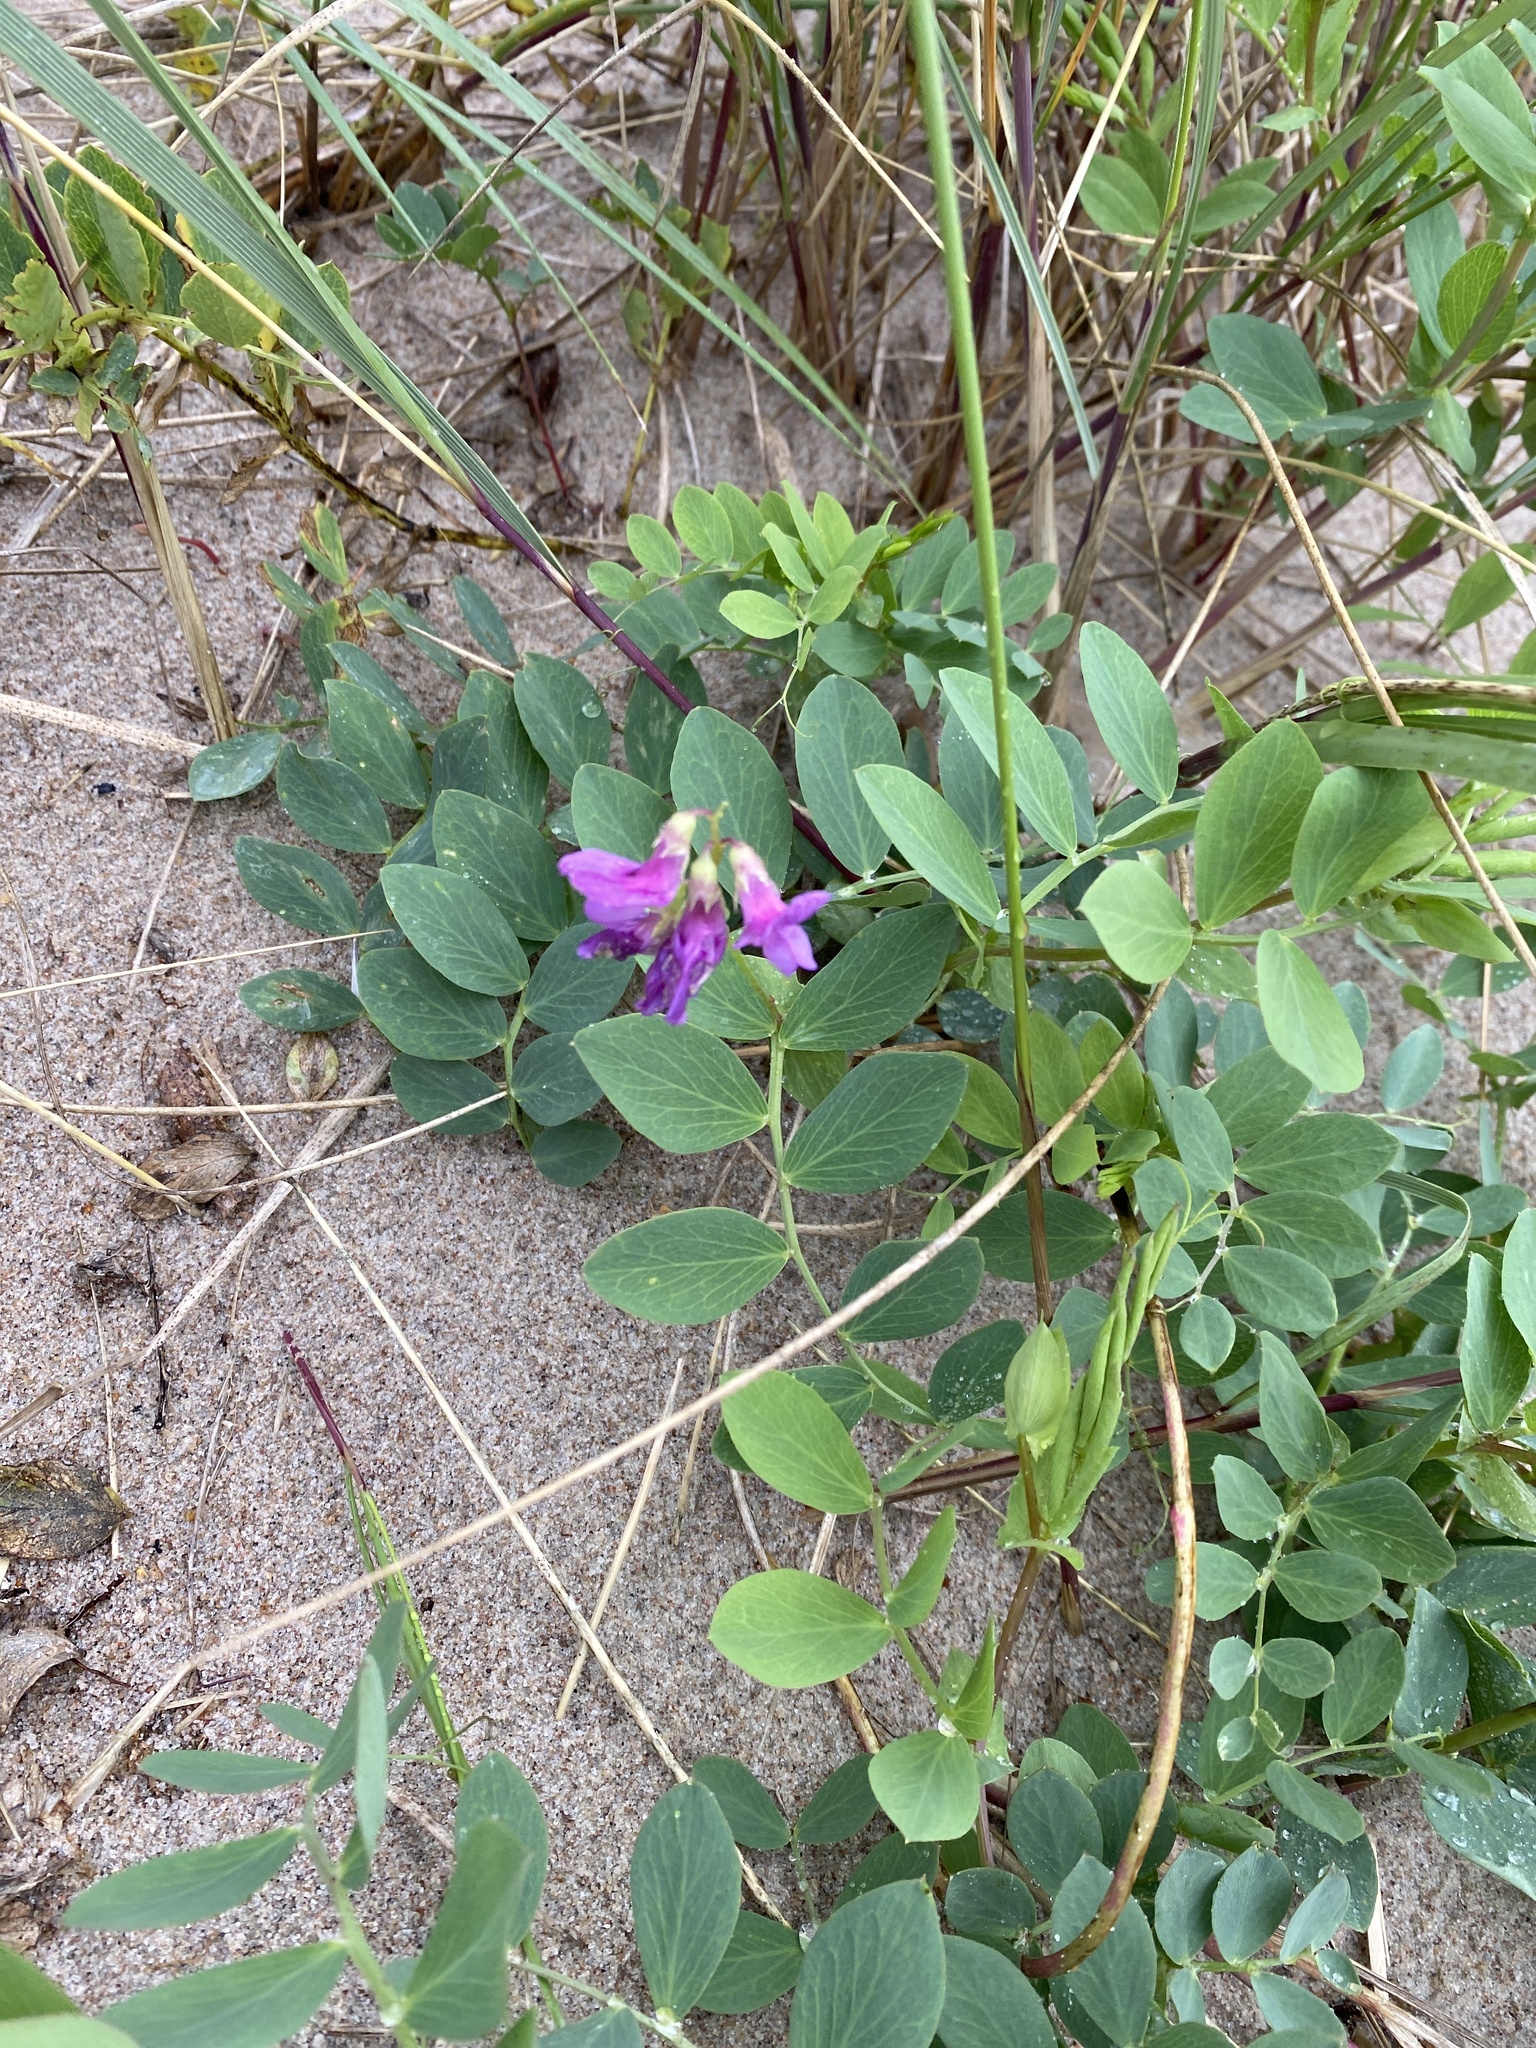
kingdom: Plantae
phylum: Tracheophyta
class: Magnoliopsida
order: Fabales
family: Fabaceae
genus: Lathyrus
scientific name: Lathyrus japonicus
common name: Sea pea
